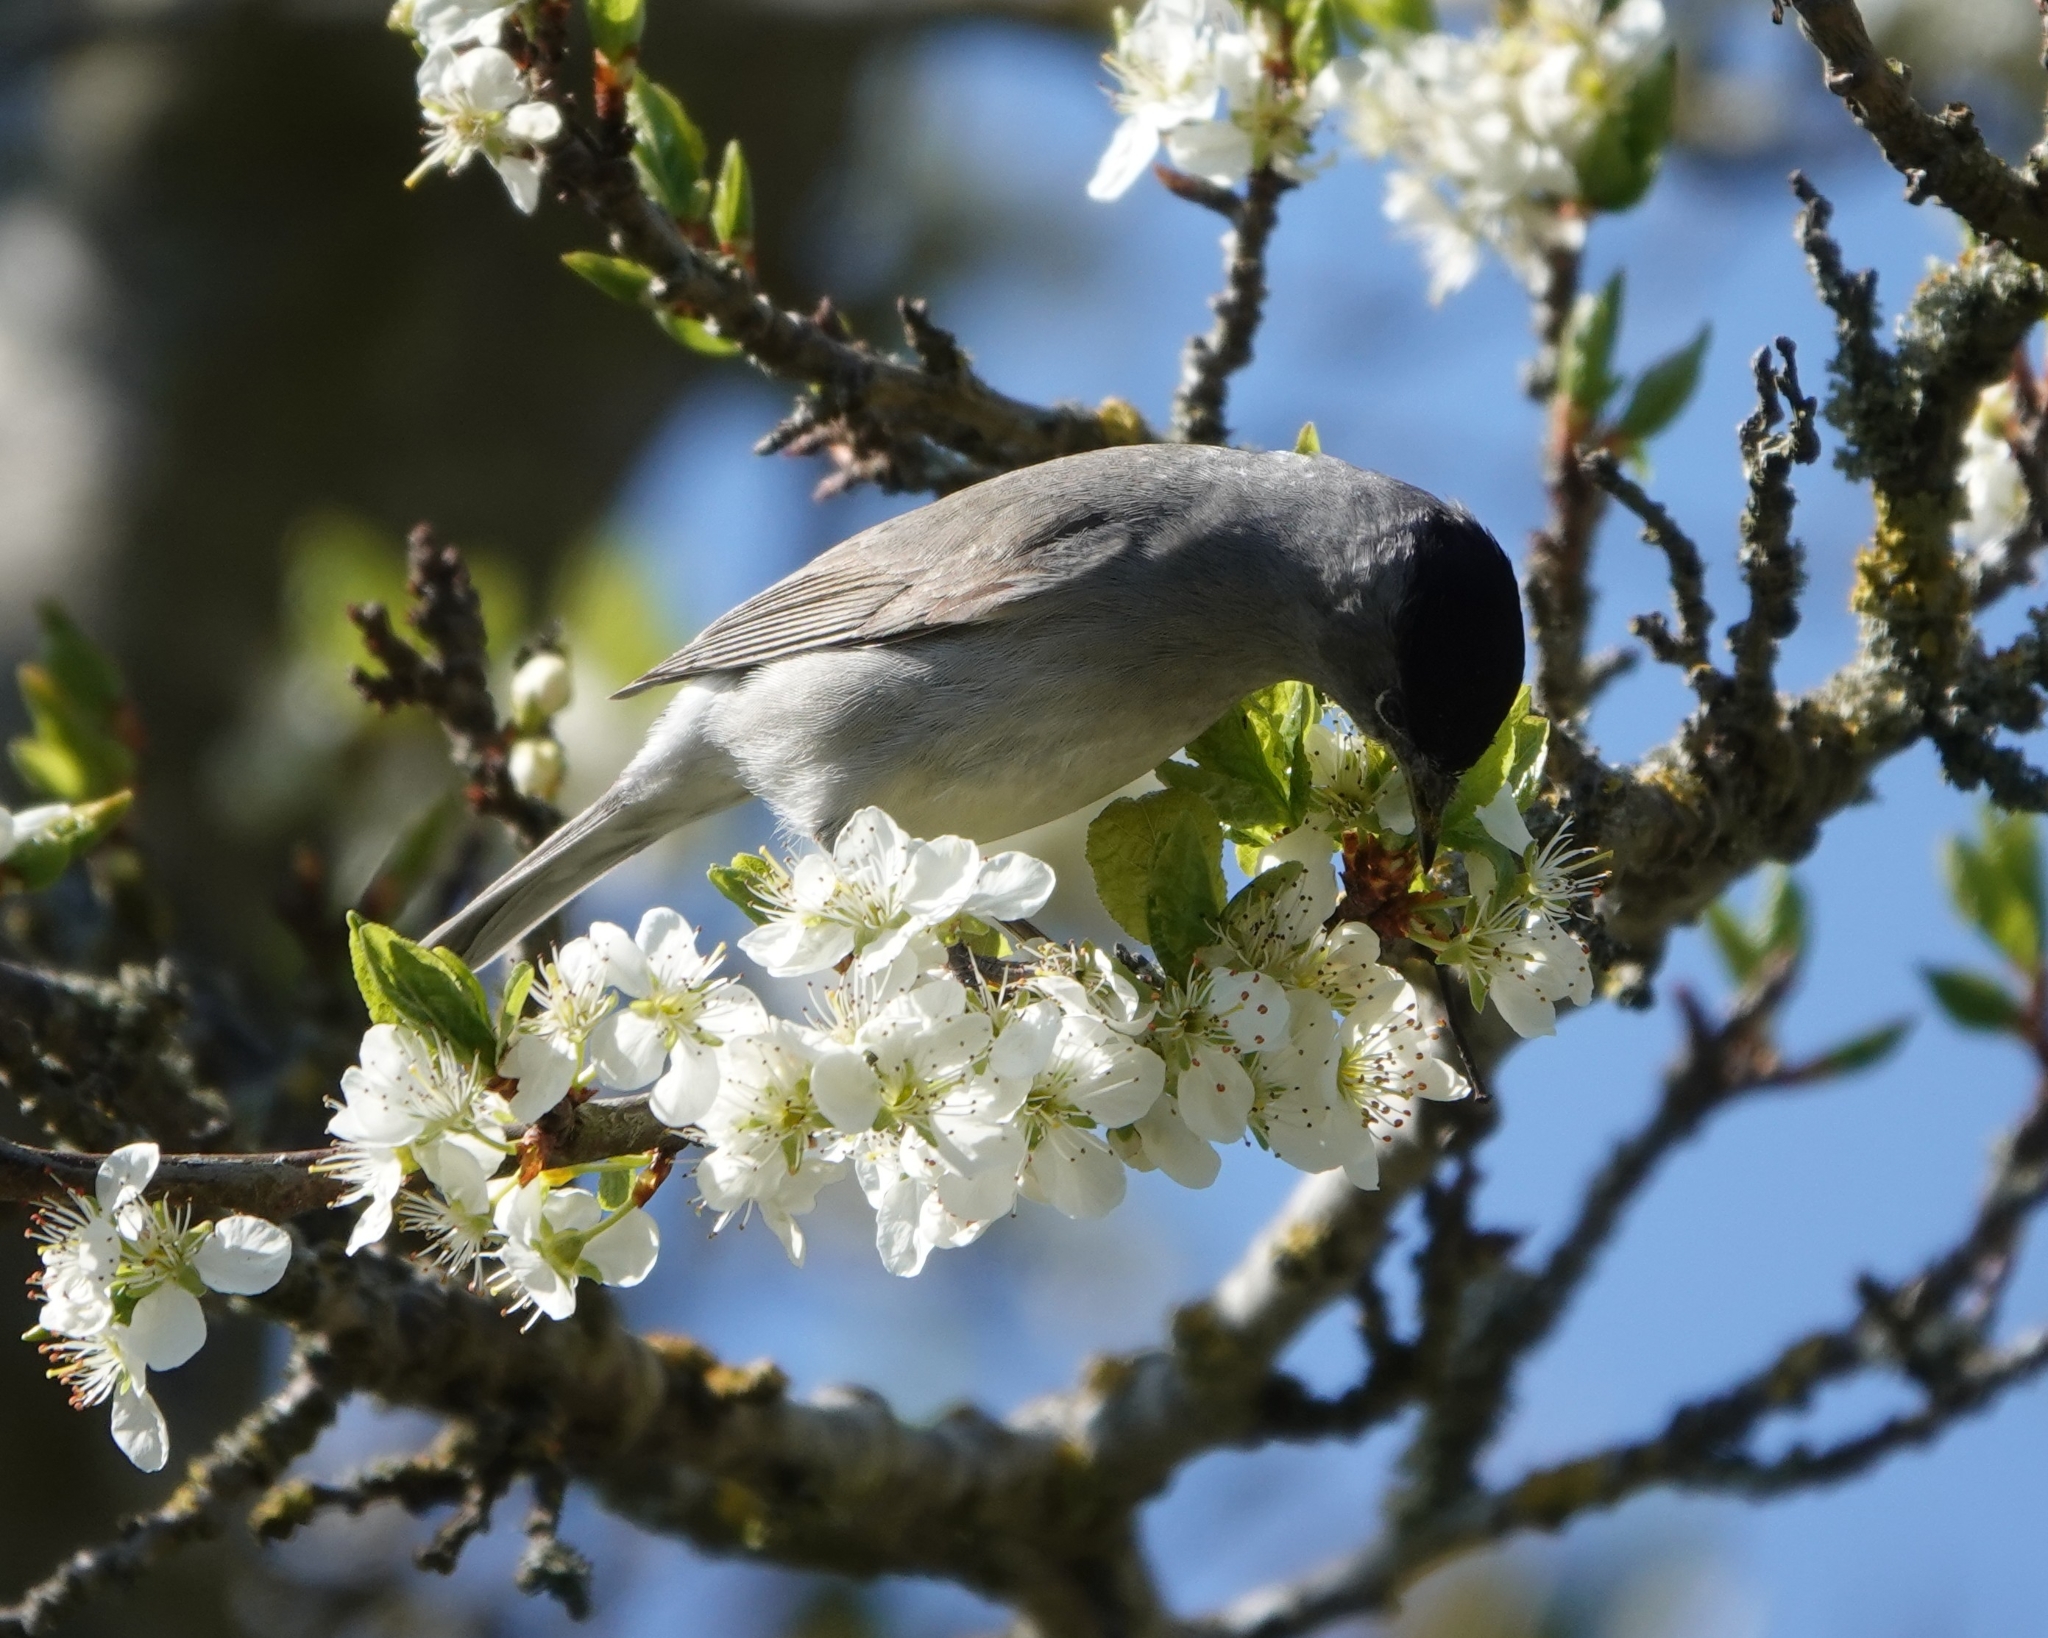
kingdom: Animalia
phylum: Chordata
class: Aves
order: Passeriformes
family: Sylviidae
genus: Sylvia
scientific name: Sylvia atricapilla
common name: Eurasian blackcap
